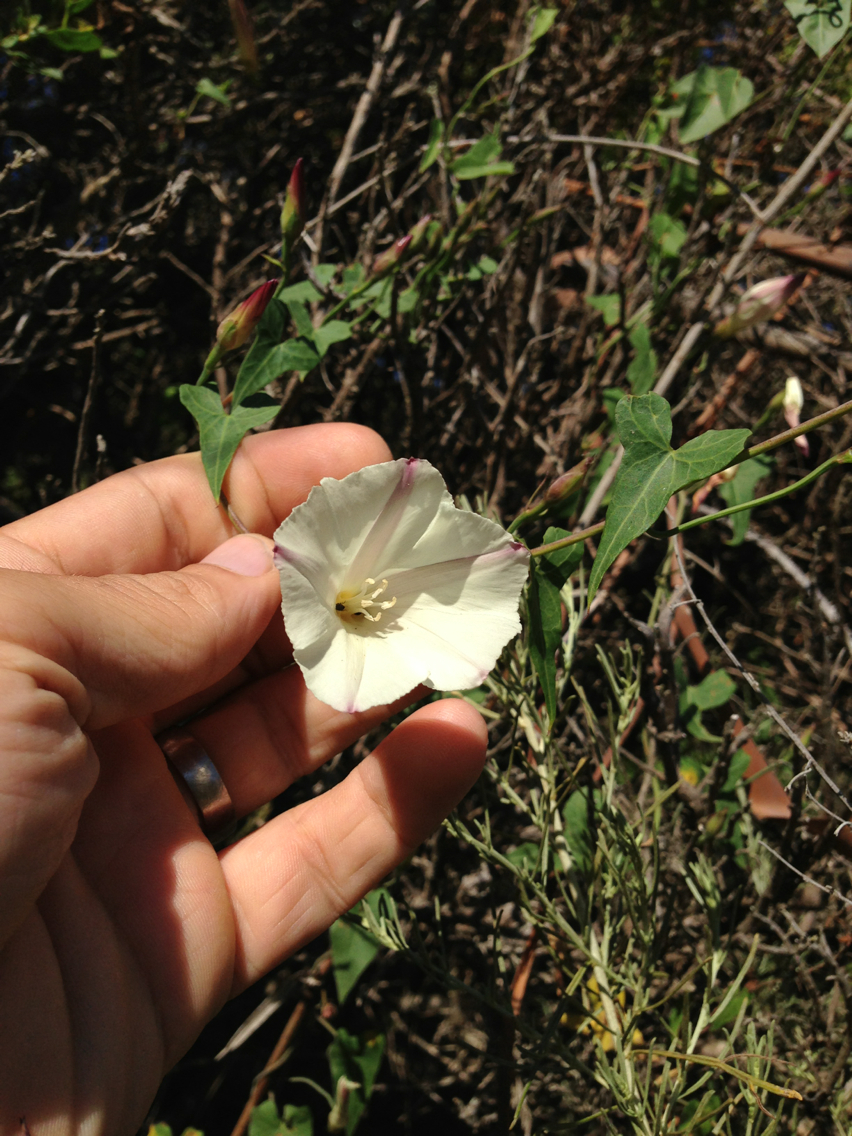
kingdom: Plantae
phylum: Tracheophyta
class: Magnoliopsida
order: Solanales
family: Convolvulaceae
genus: Calystegia
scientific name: Calystegia purpurata
